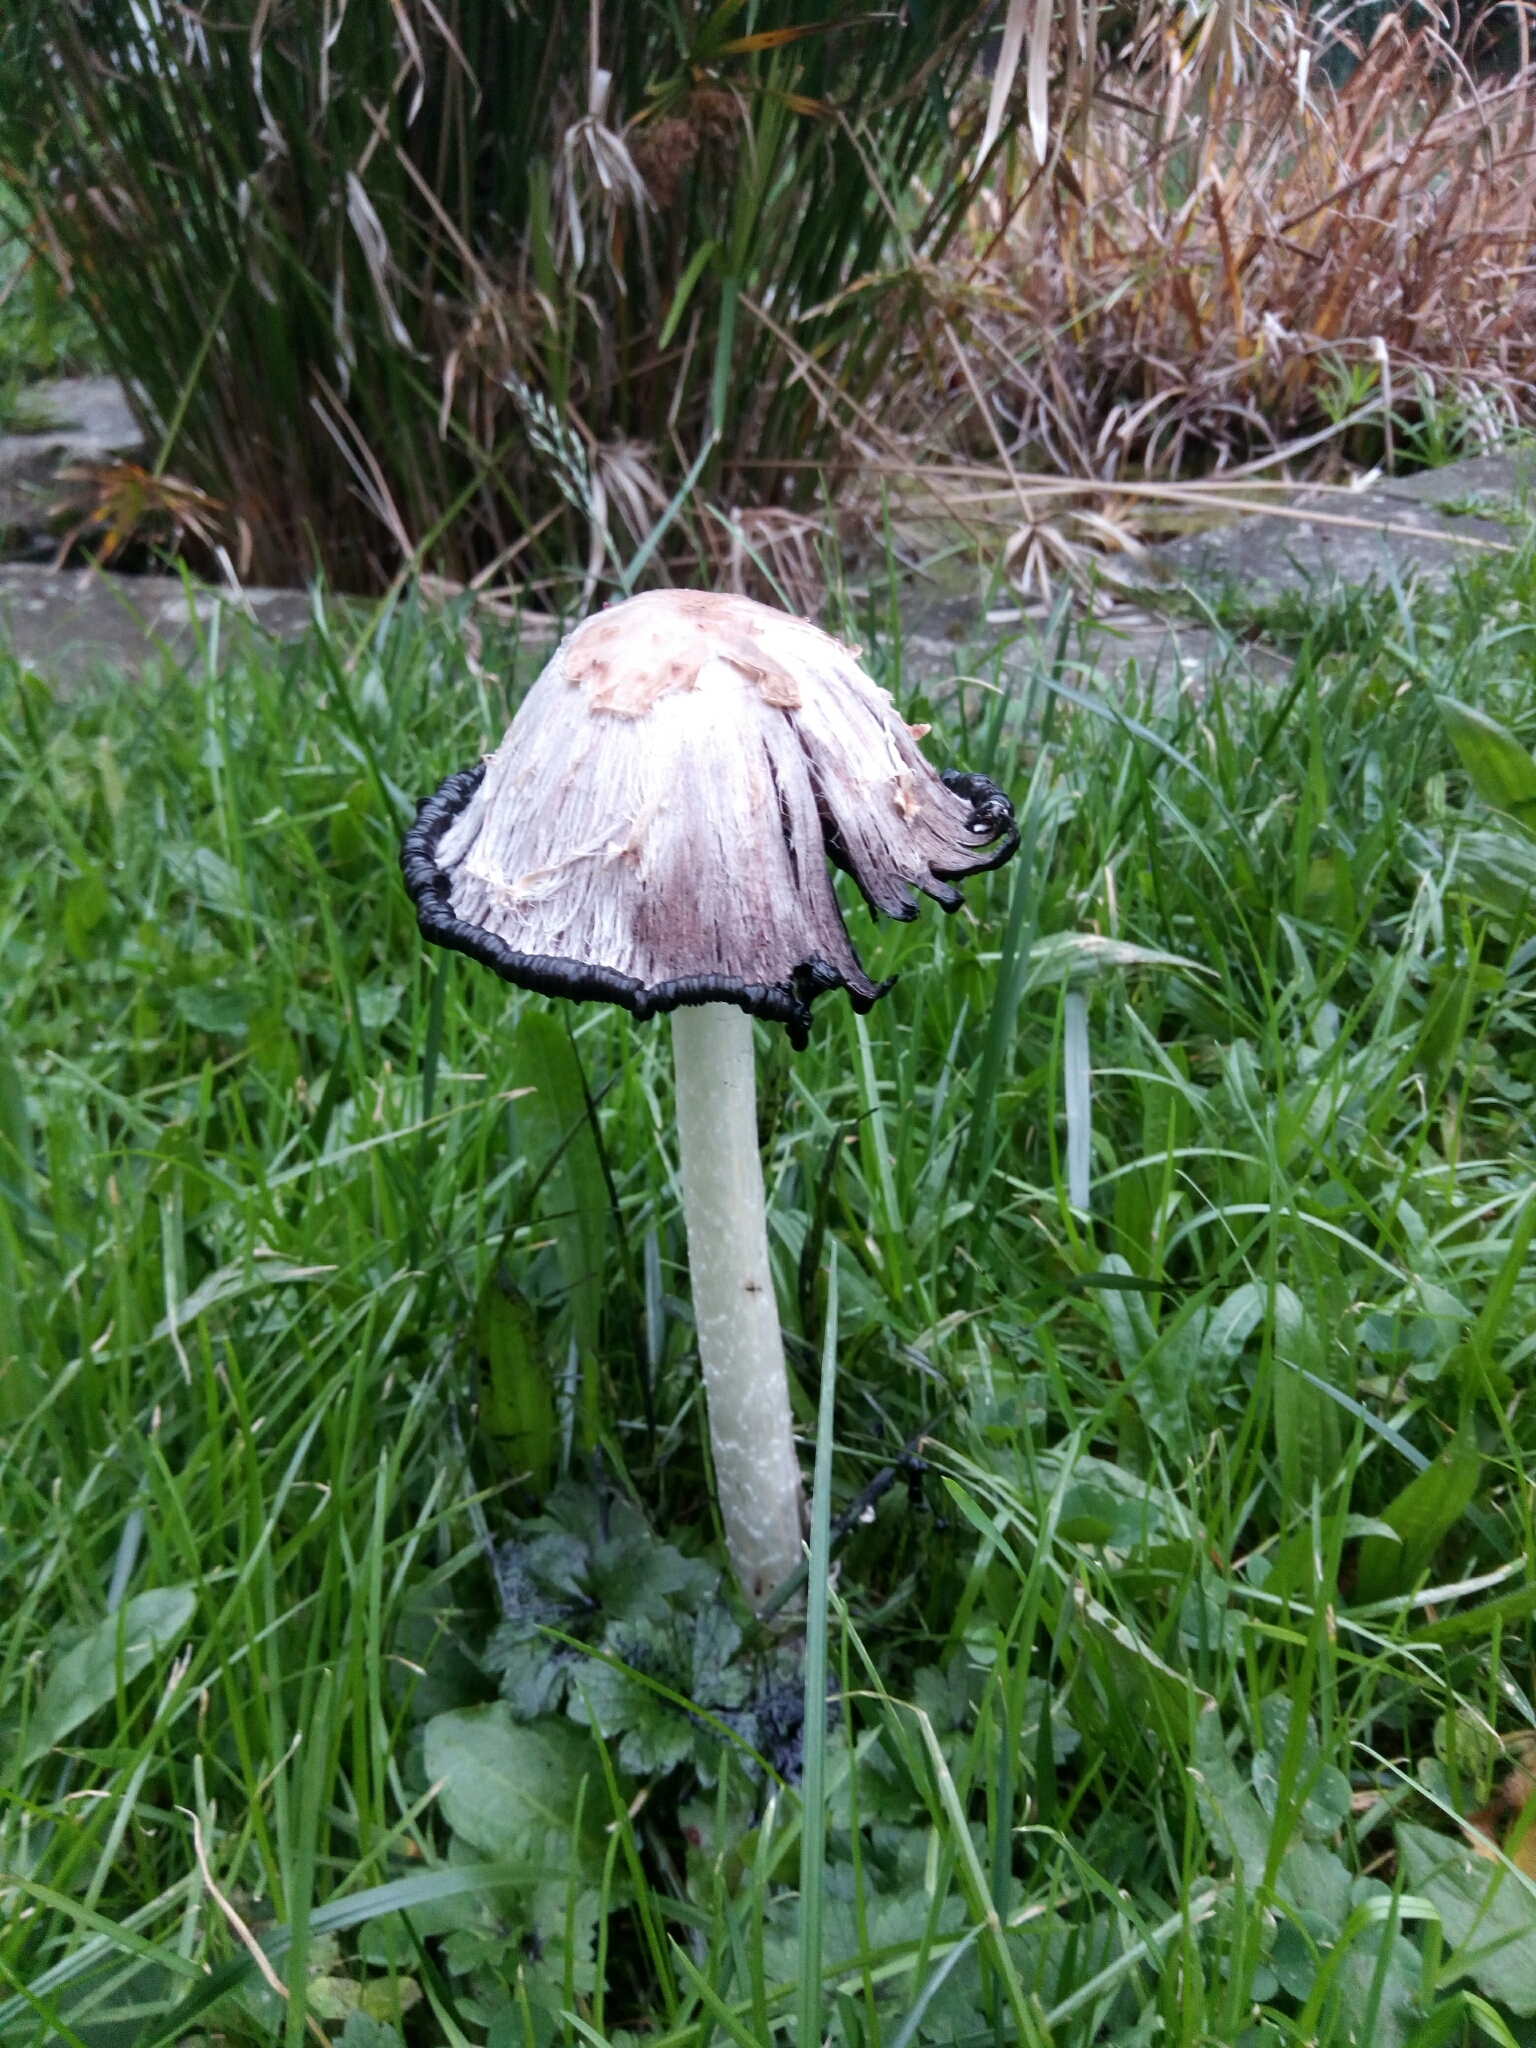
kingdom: Fungi
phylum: Basidiomycota
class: Agaricomycetes
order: Agaricales
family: Agaricaceae
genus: Coprinus
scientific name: Coprinus comatus
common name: Lawyer's wig
